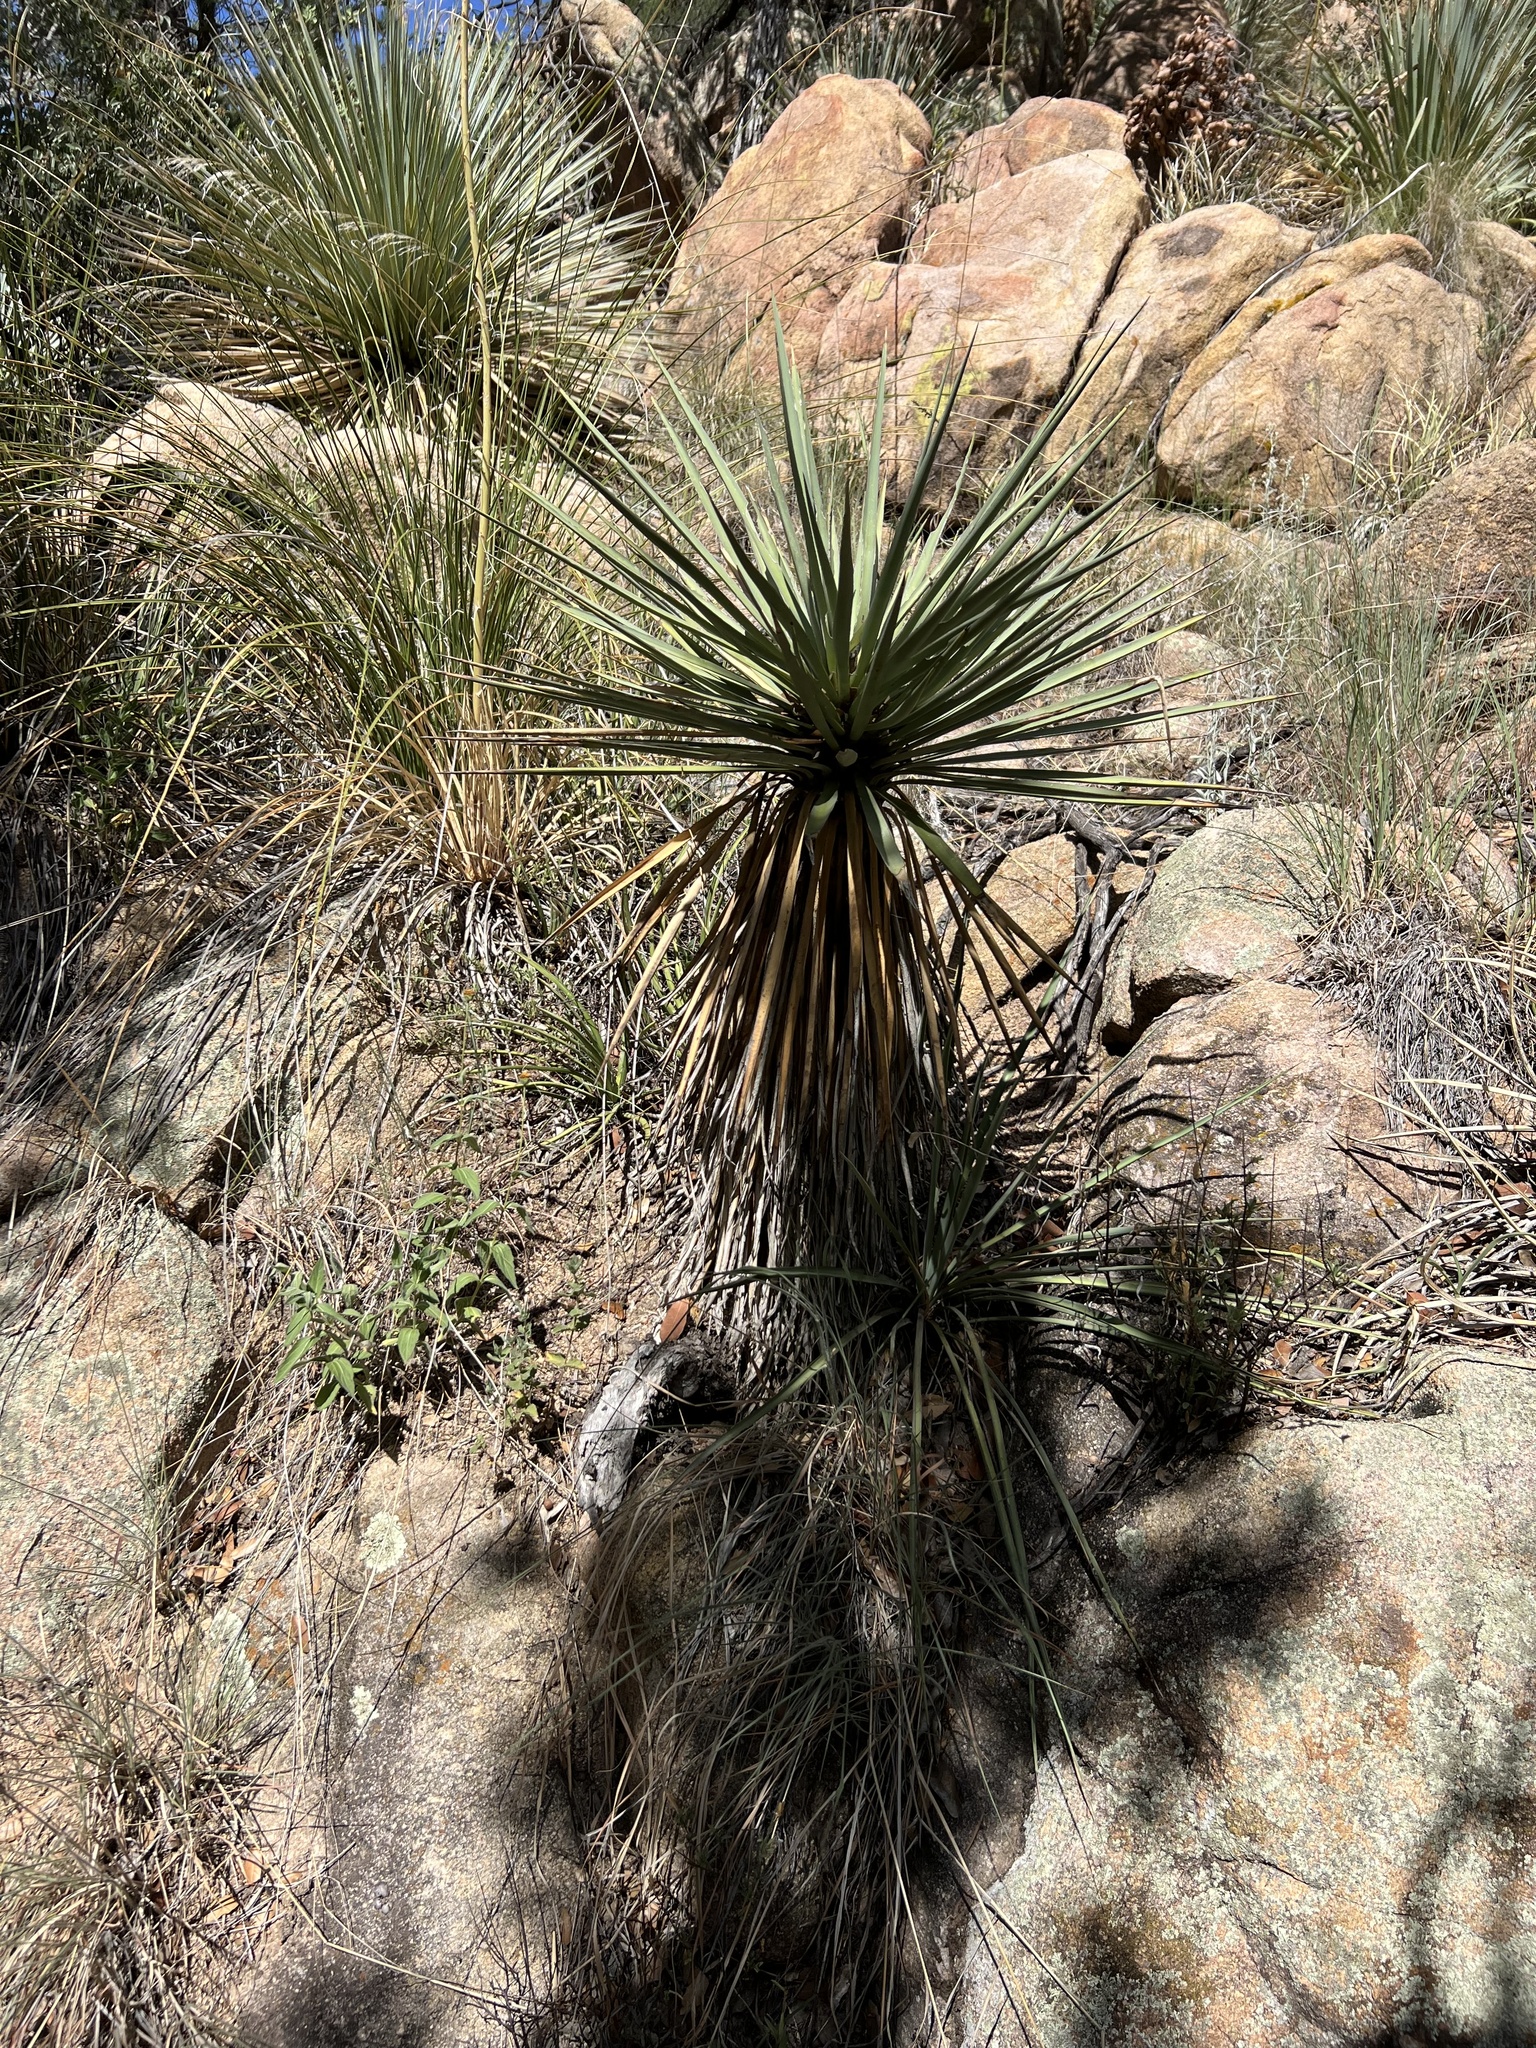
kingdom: Plantae
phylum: Tracheophyta
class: Liliopsida
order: Asparagales
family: Asparagaceae
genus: Yucca
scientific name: Yucca schottii
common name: Hoary yucca
